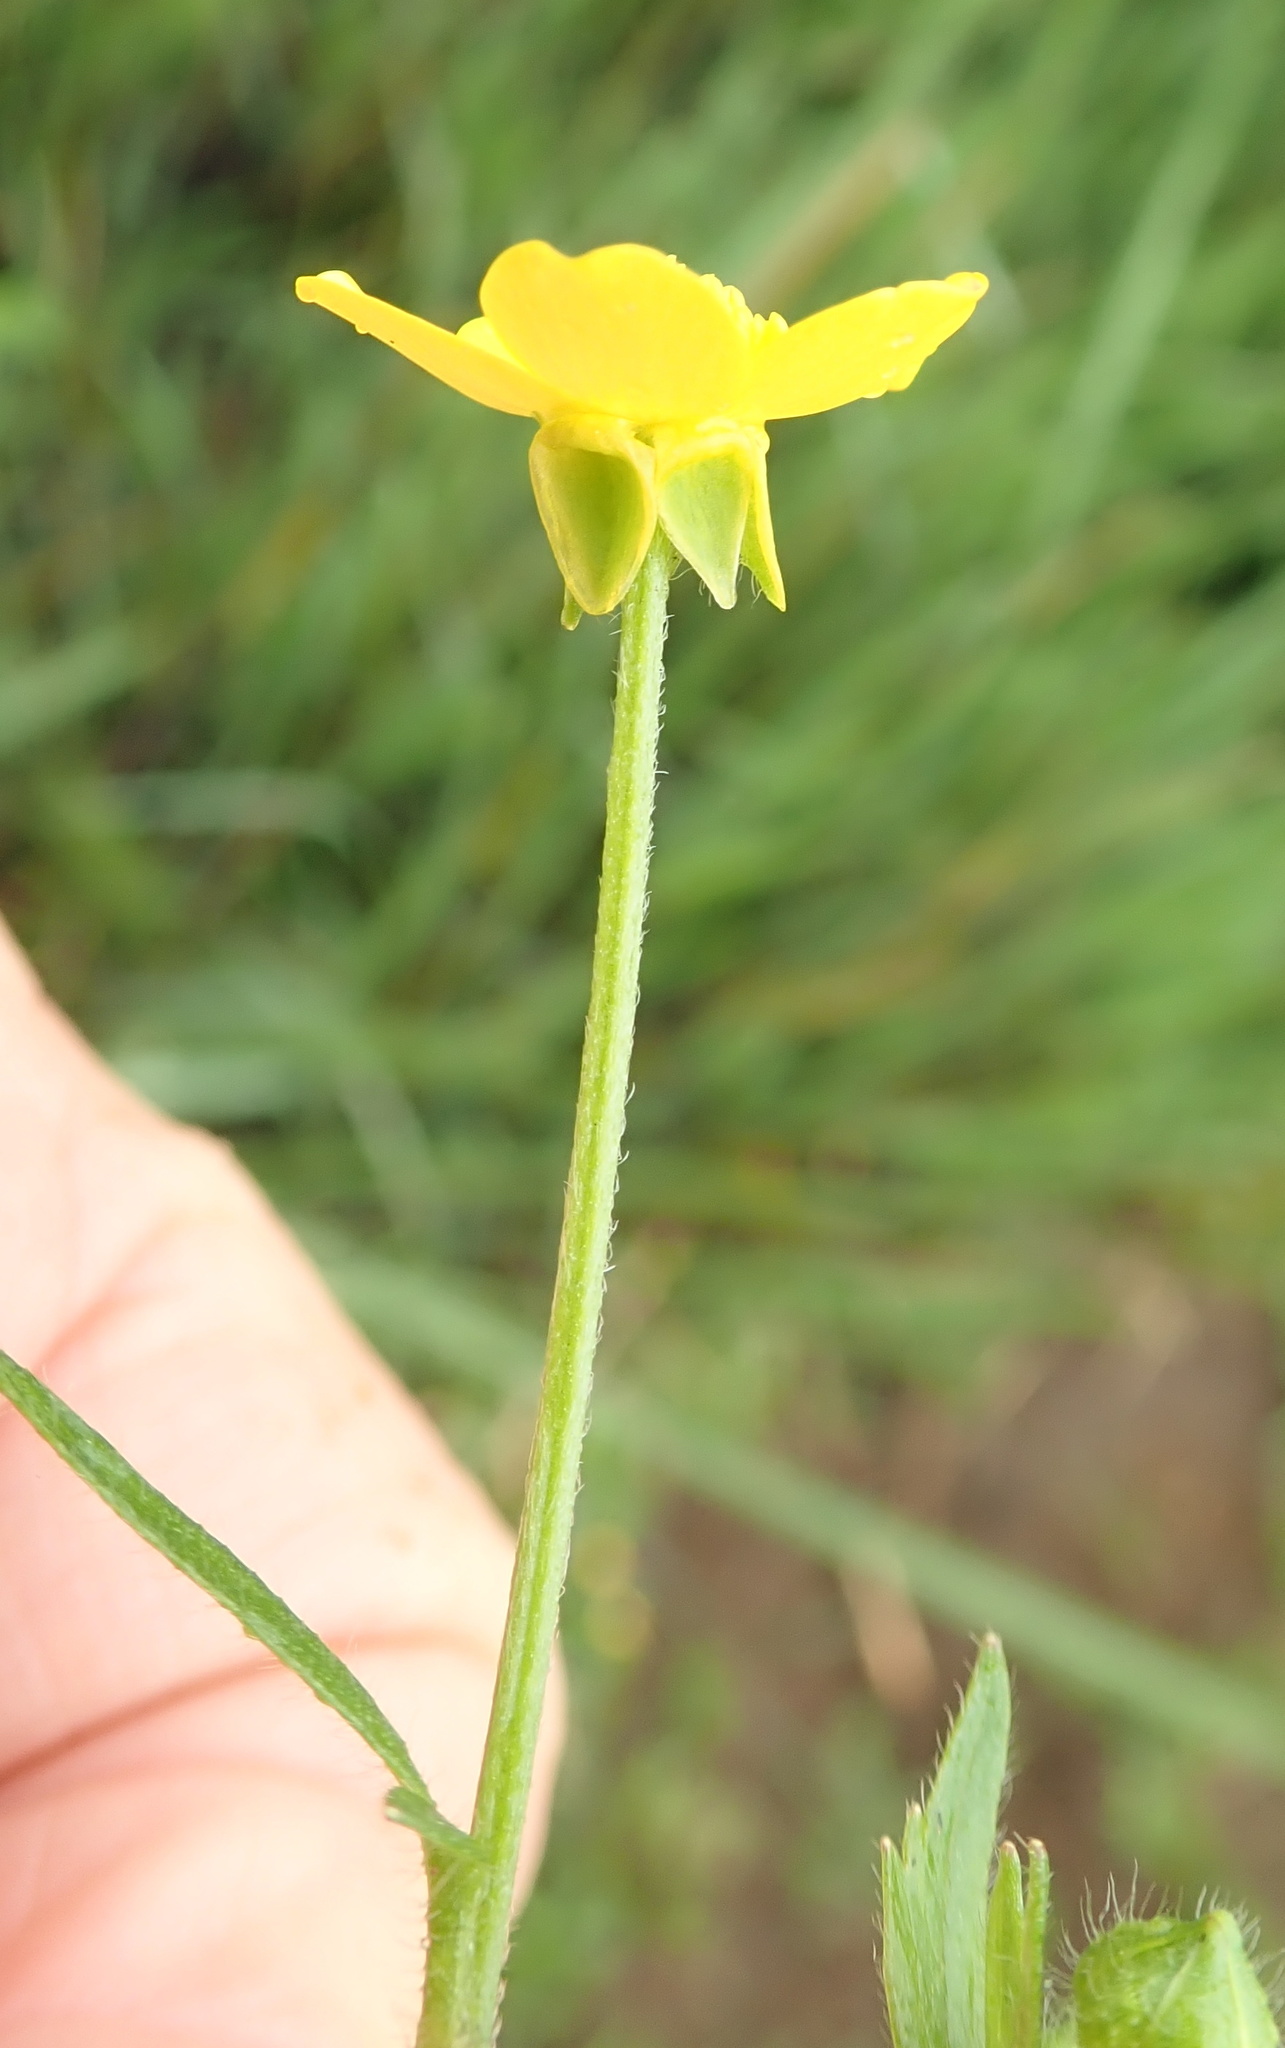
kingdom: Plantae
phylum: Tracheophyta
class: Magnoliopsida
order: Ranunculales
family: Ranunculaceae
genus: Ranunculus
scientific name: Ranunculus multifidus
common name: Wild buttercup
